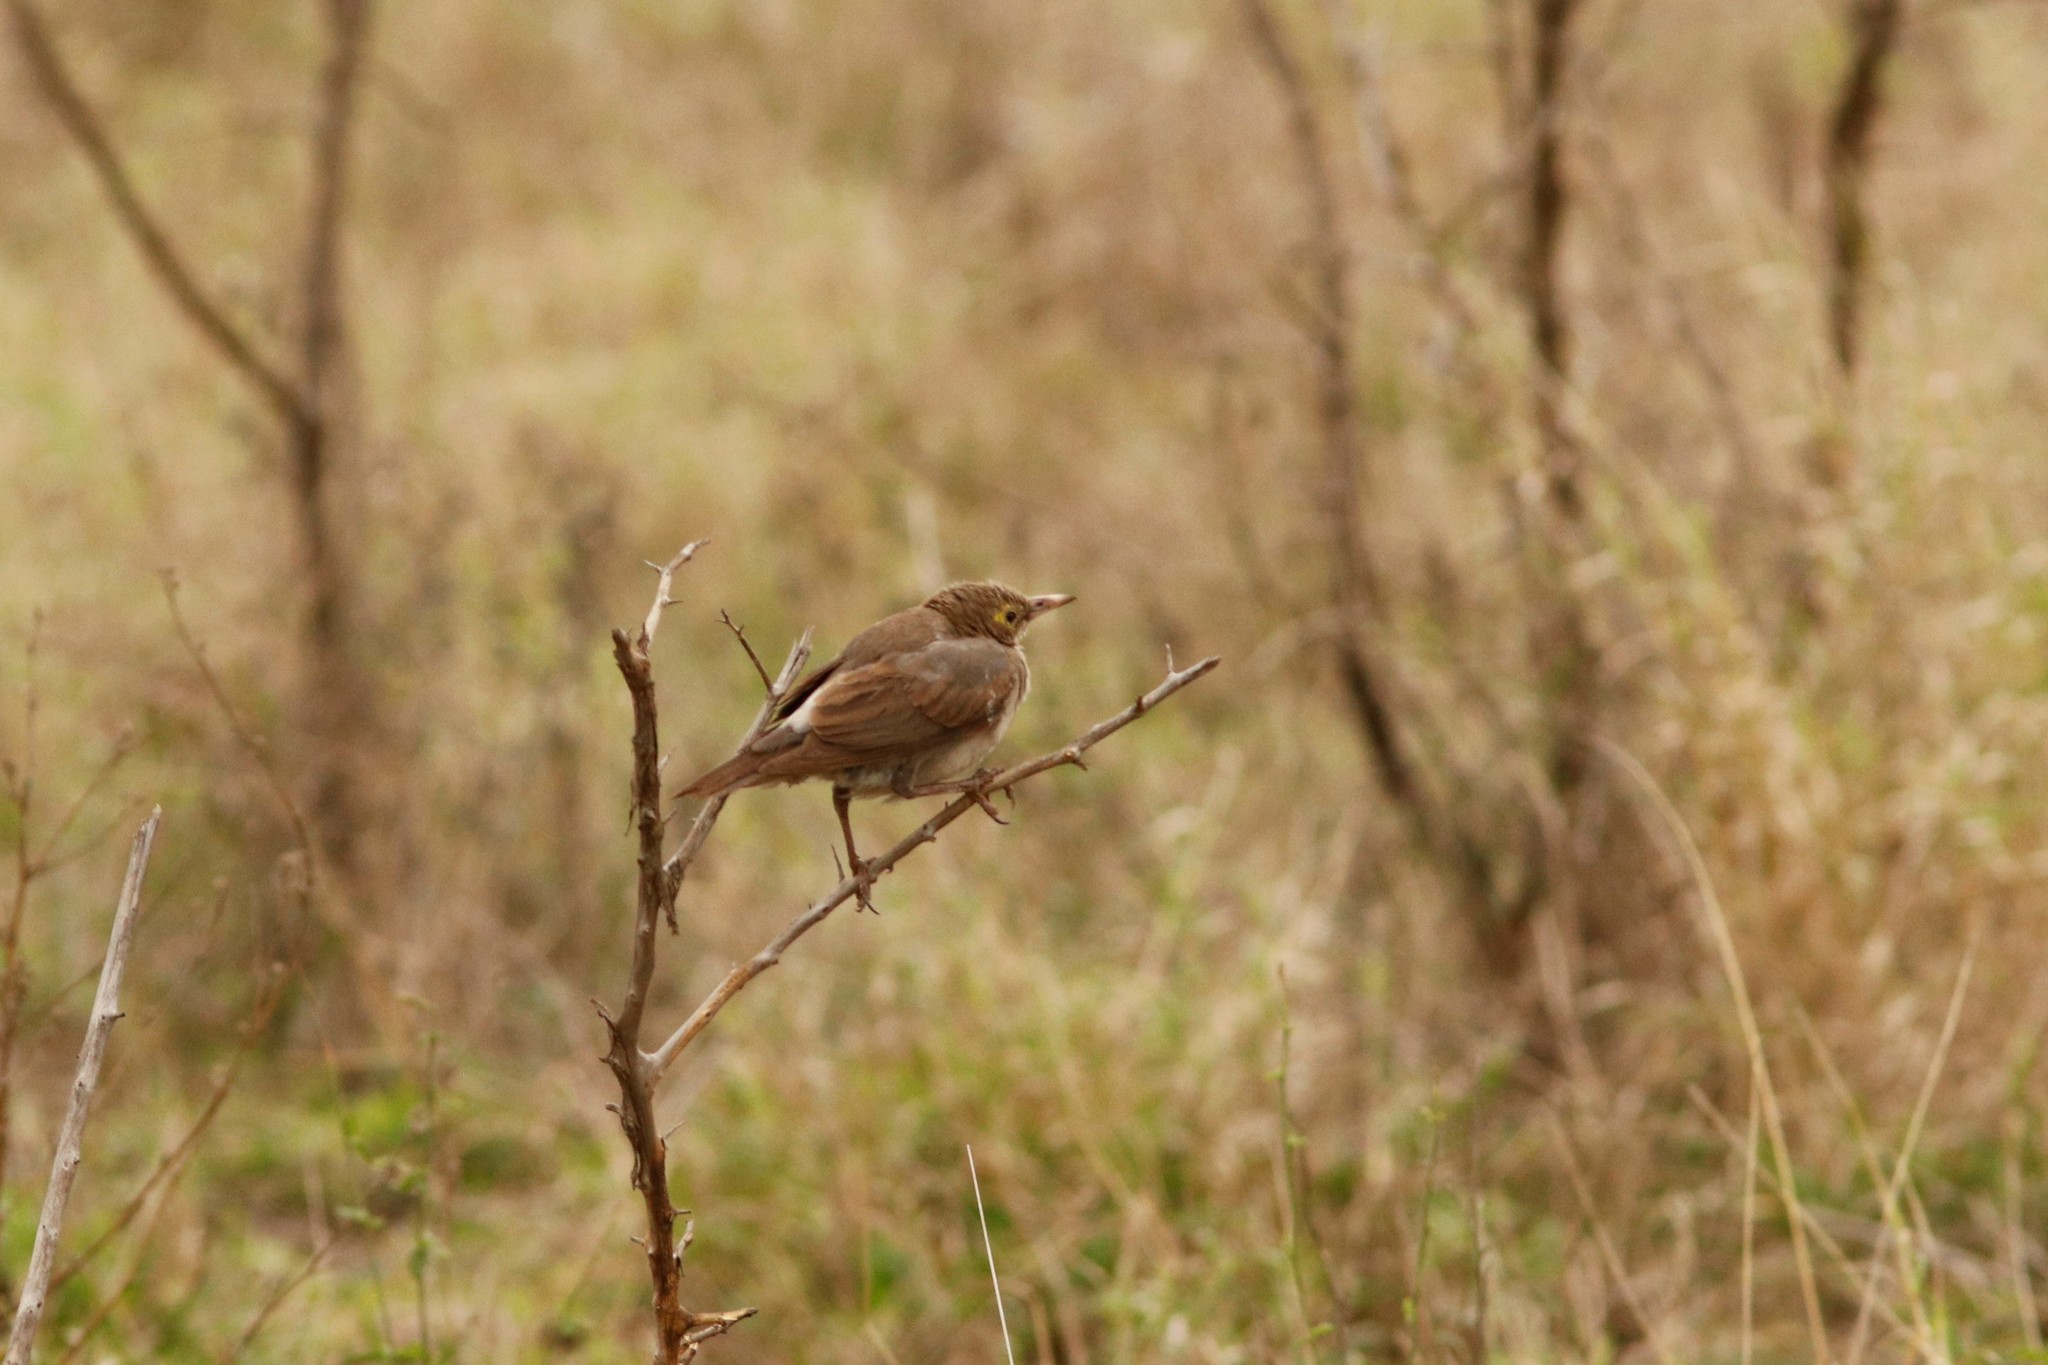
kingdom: Animalia
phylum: Chordata
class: Aves
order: Passeriformes
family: Sturnidae
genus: Creatophora
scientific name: Creatophora cinerea
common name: Wattled starling
